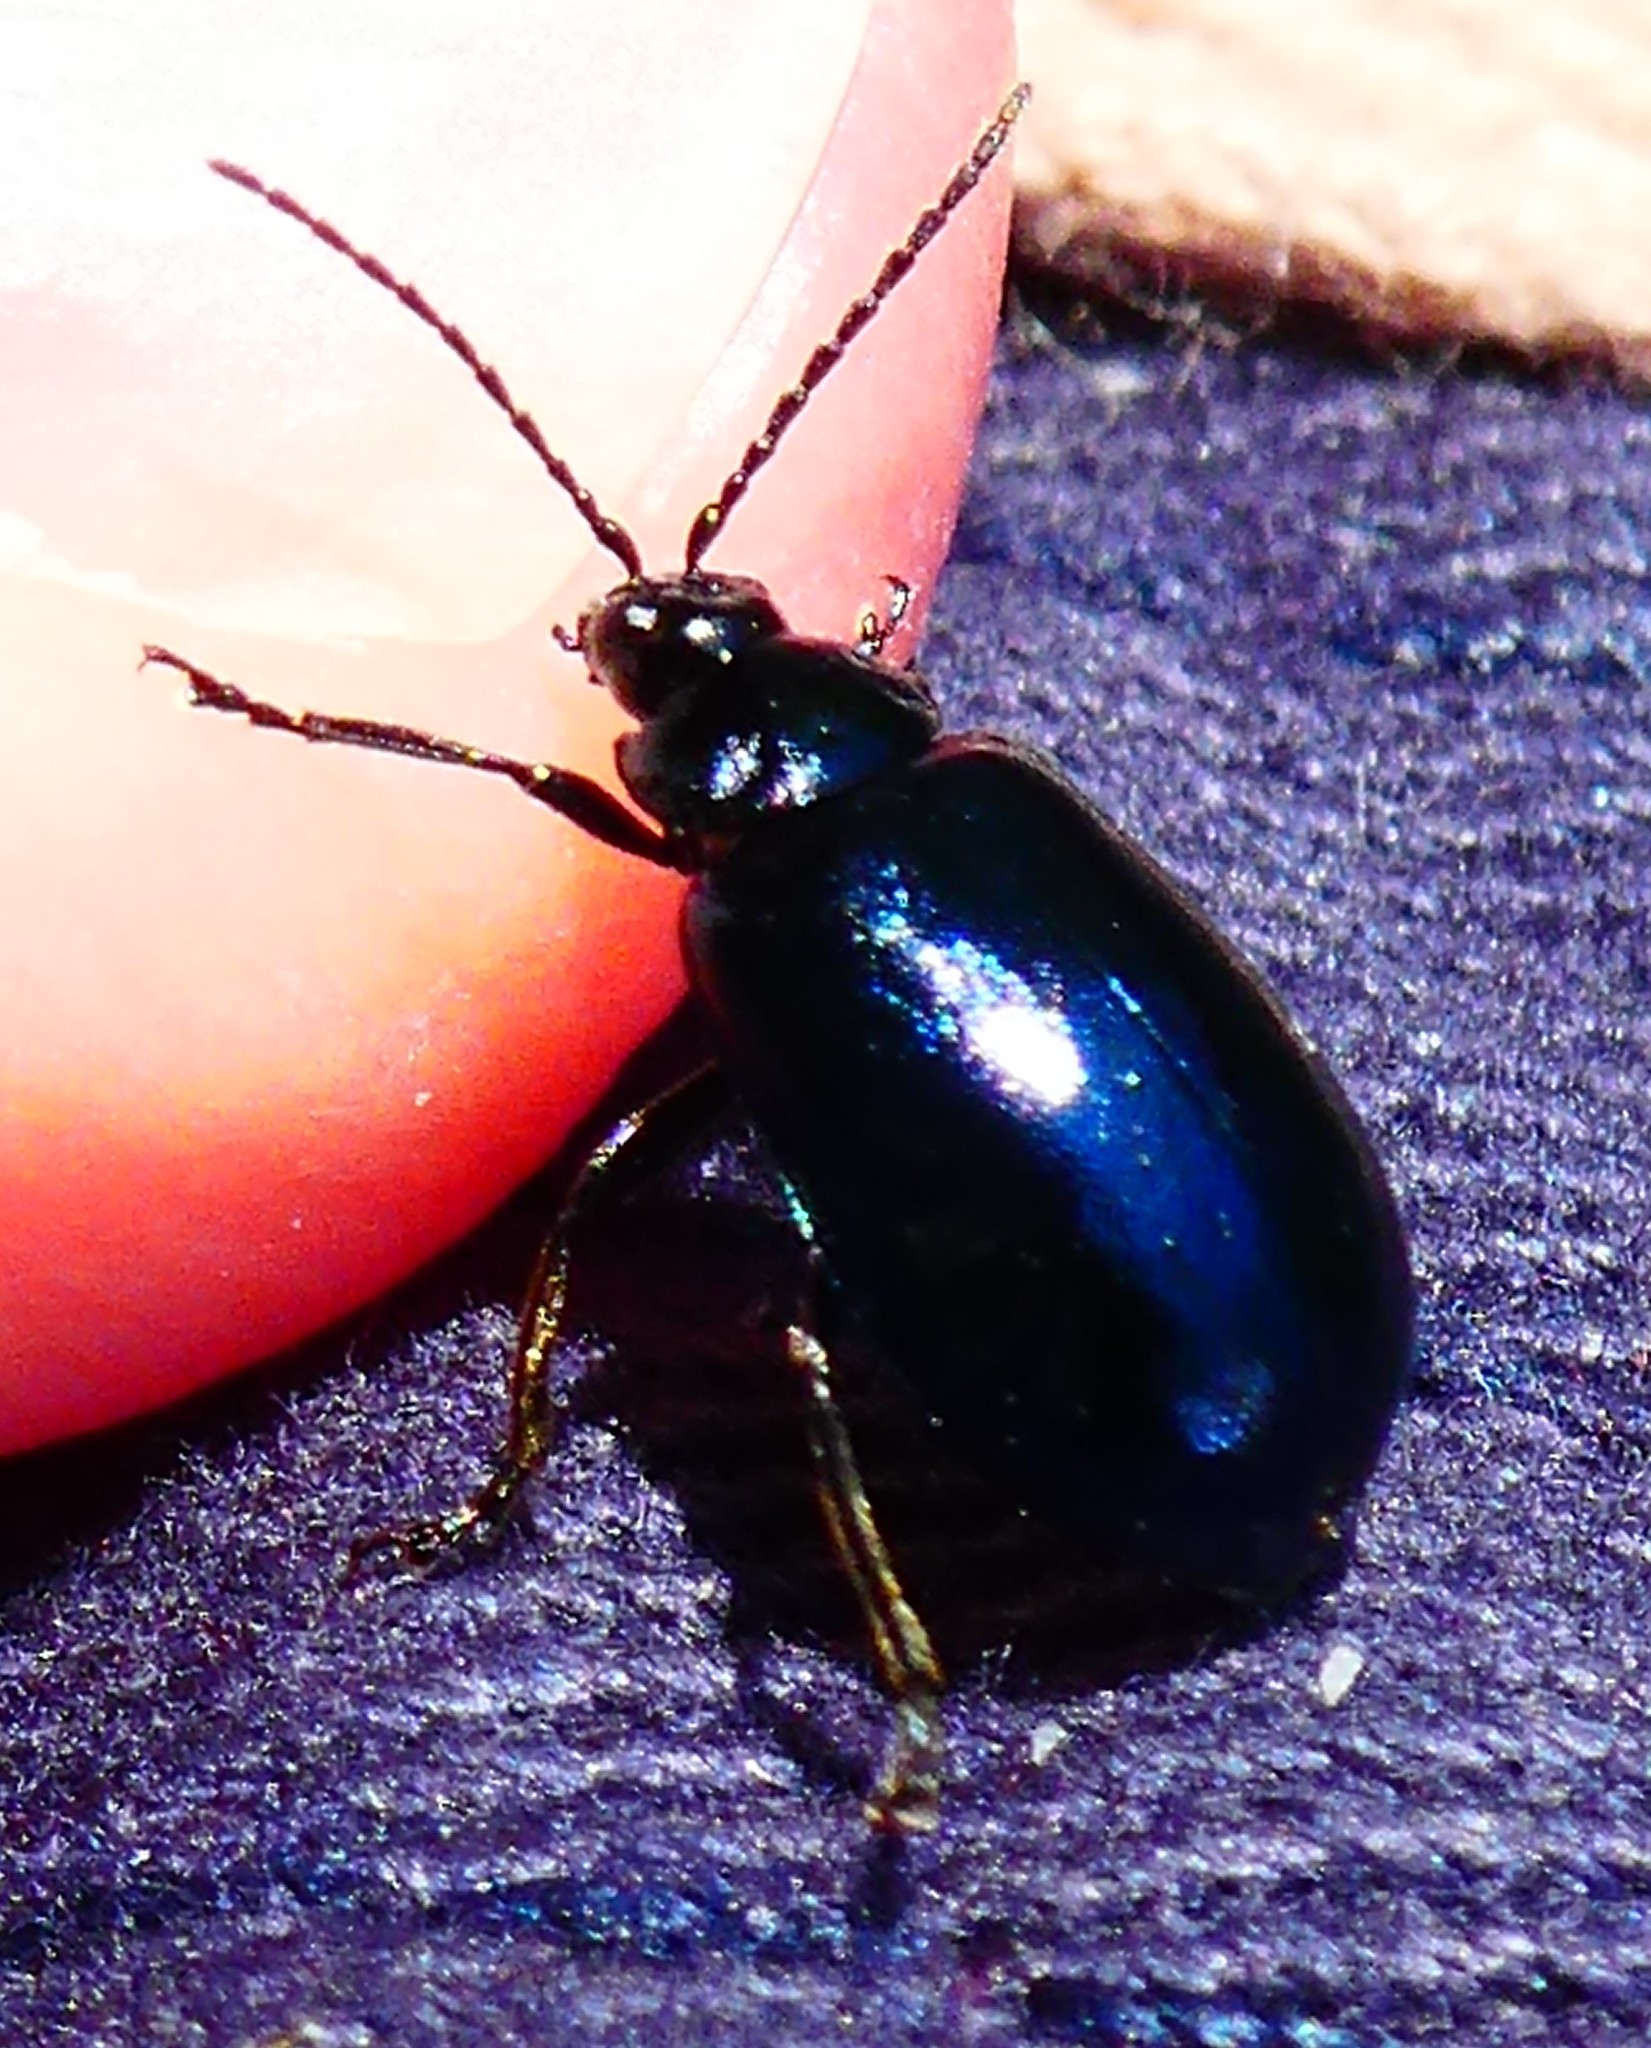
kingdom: Animalia
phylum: Arthropoda
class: Insecta
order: Coleoptera
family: Chrysomelidae
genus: Agelastica
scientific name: Agelastica alni
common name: Alder leaf beetle
